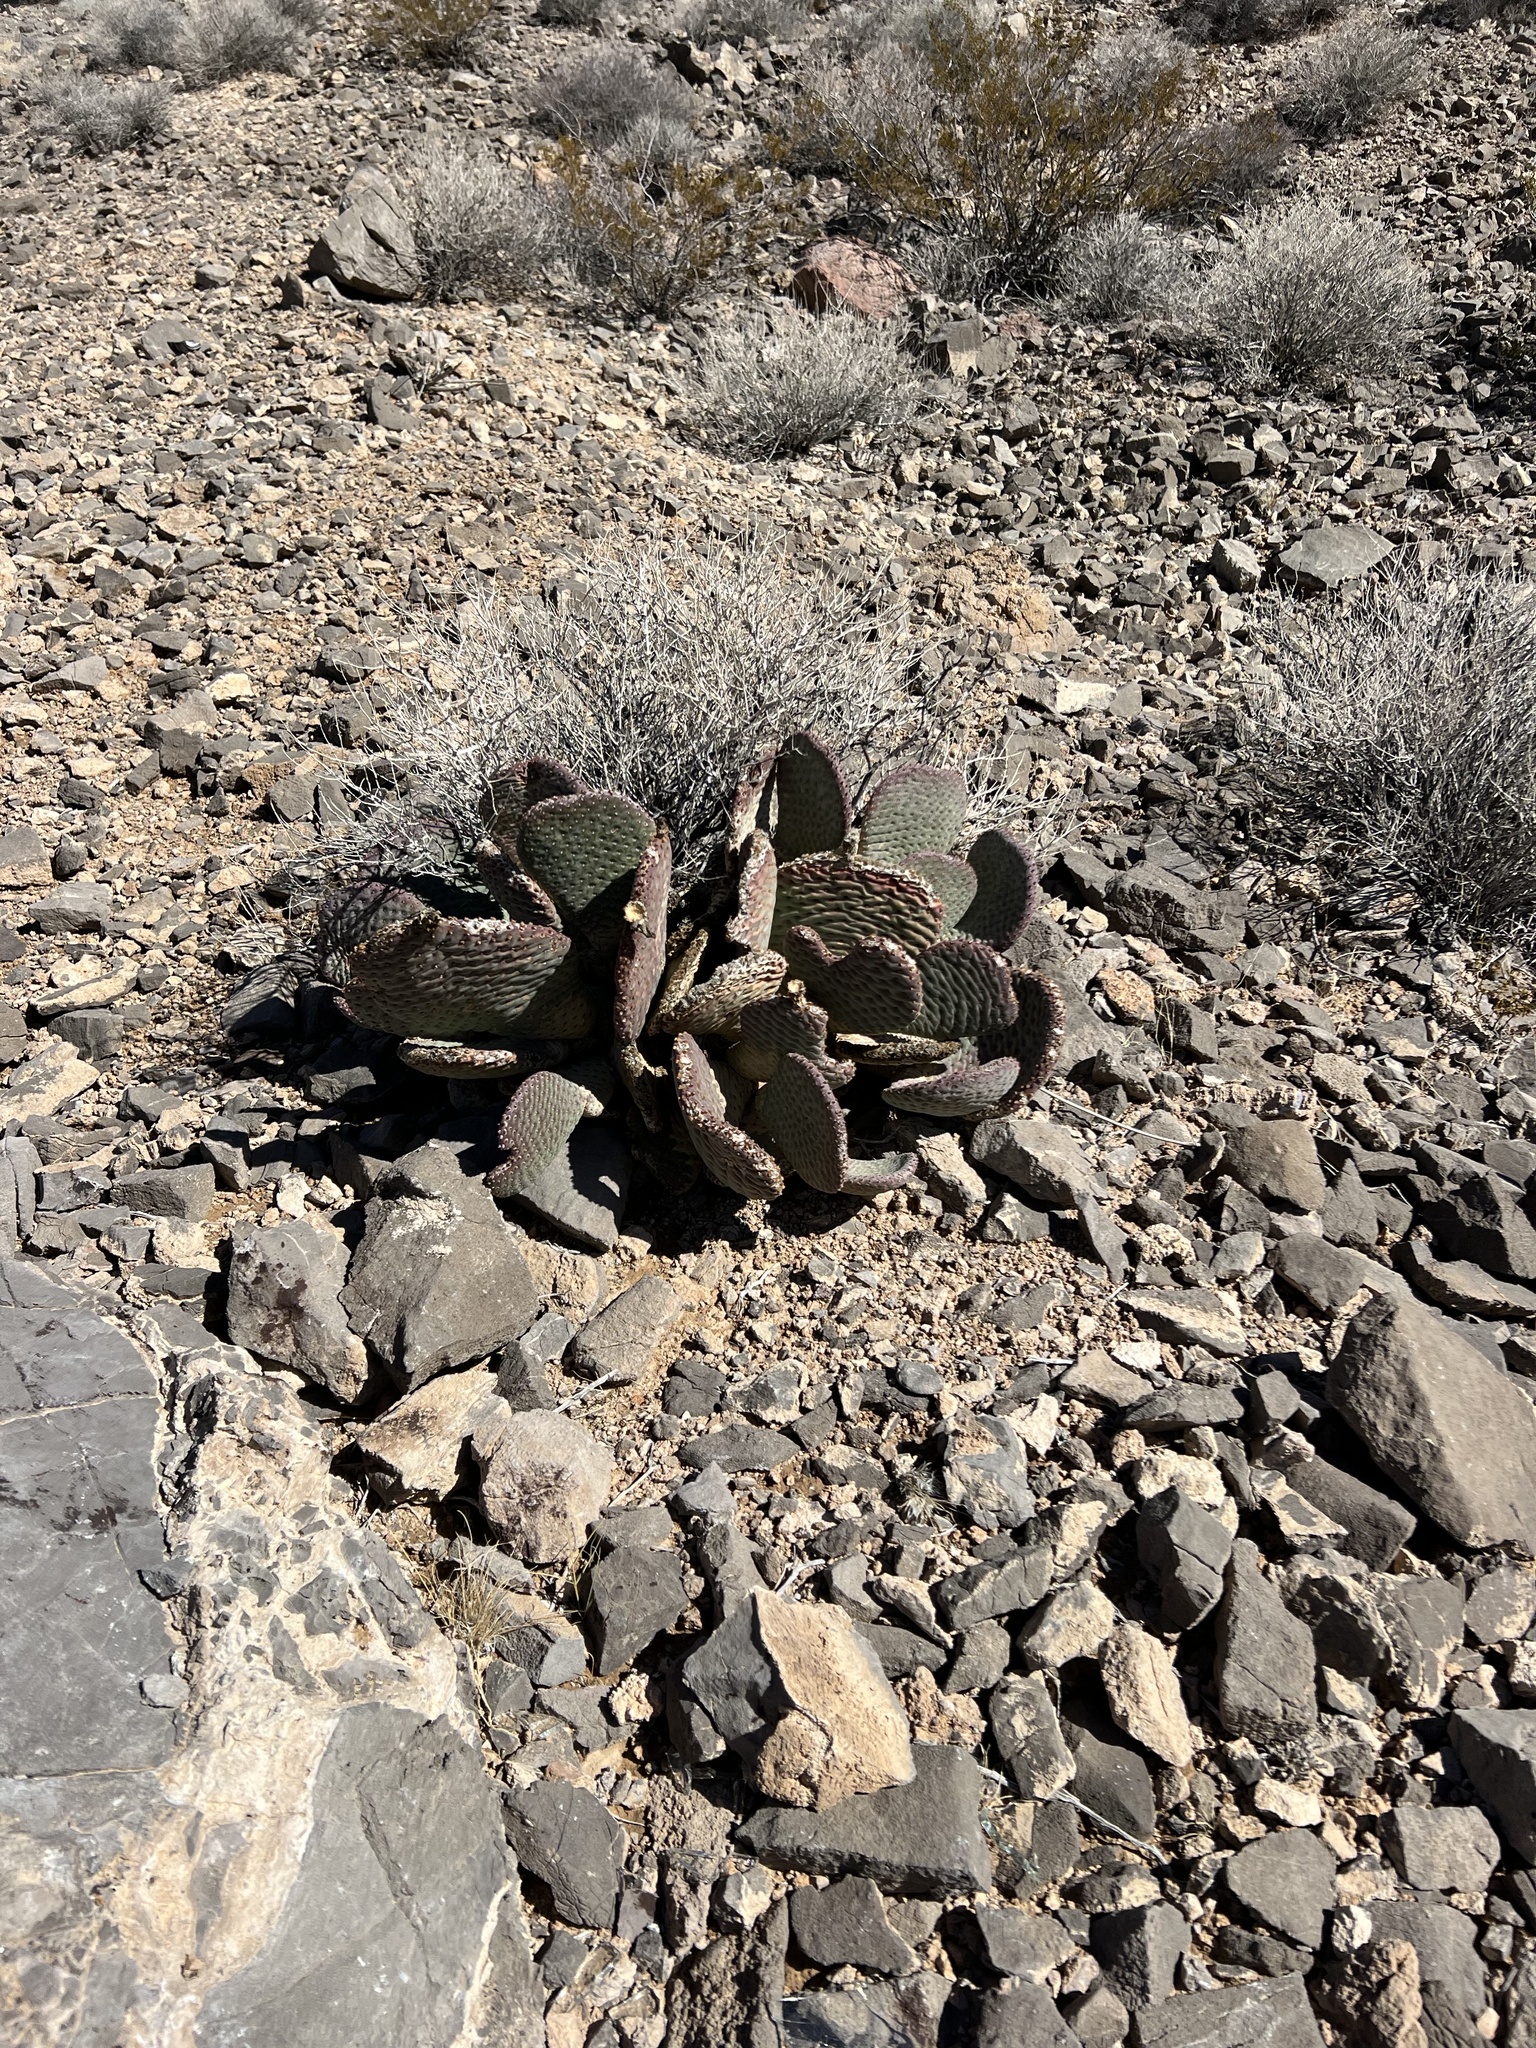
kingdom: Plantae
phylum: Tracheophyta
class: Magnoliopsida
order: Caryophyllales
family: Cactaceae
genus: Opuntia
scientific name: Opuntia basilaris
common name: Beavertail prickly-pear
